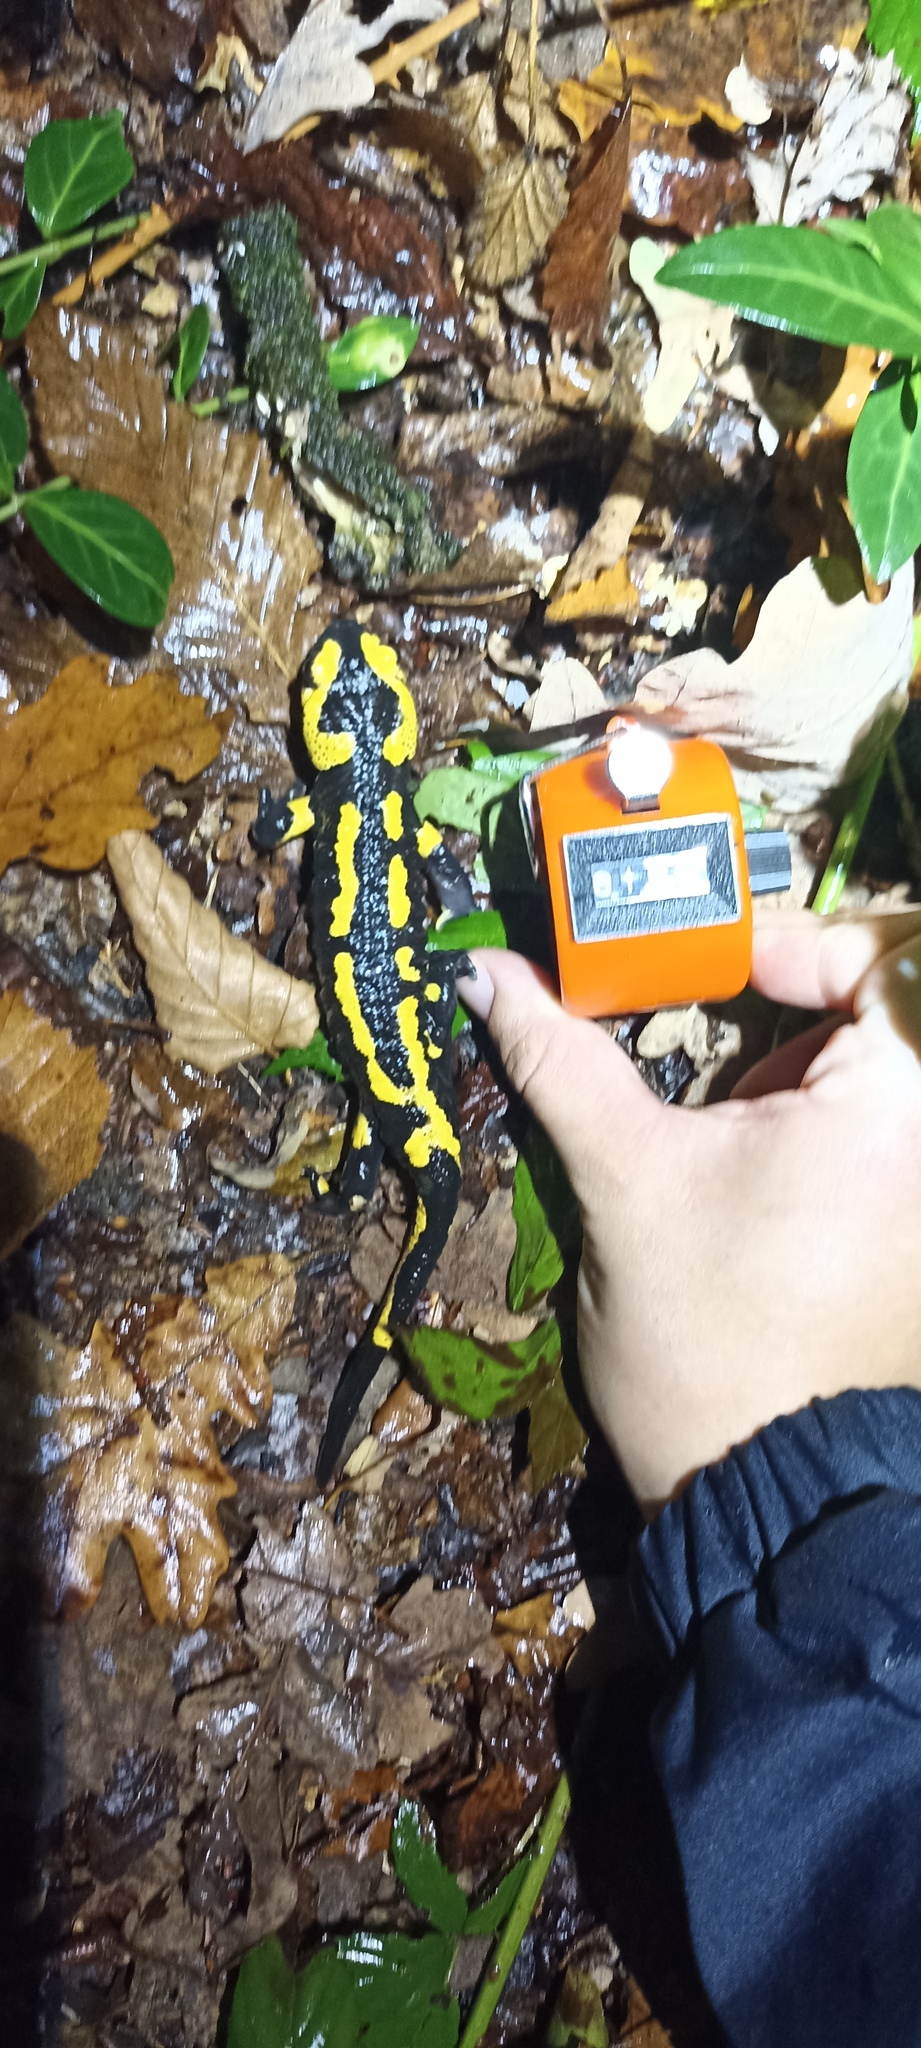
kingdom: Animalia
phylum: Chordata
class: Amphibia
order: Caudata
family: Salamandridae
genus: Salamandra
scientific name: Salamandra salamandra
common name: Fire salamander
